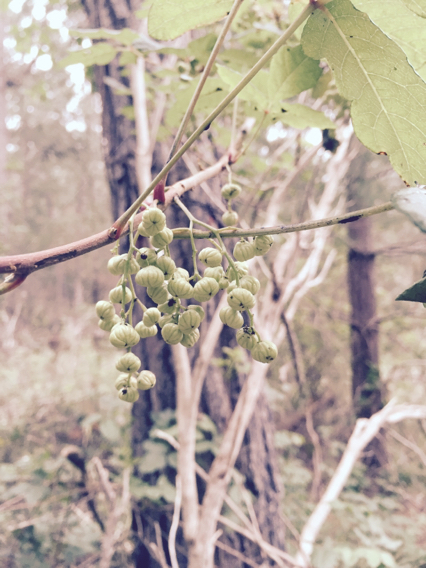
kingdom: Plantae
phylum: Tracheophyta
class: Magnoliopsida
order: Sapindales
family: Anacardiaceae
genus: Toxicodendron
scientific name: Toxicodendron diversilobum
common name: Pacific poison-oak
